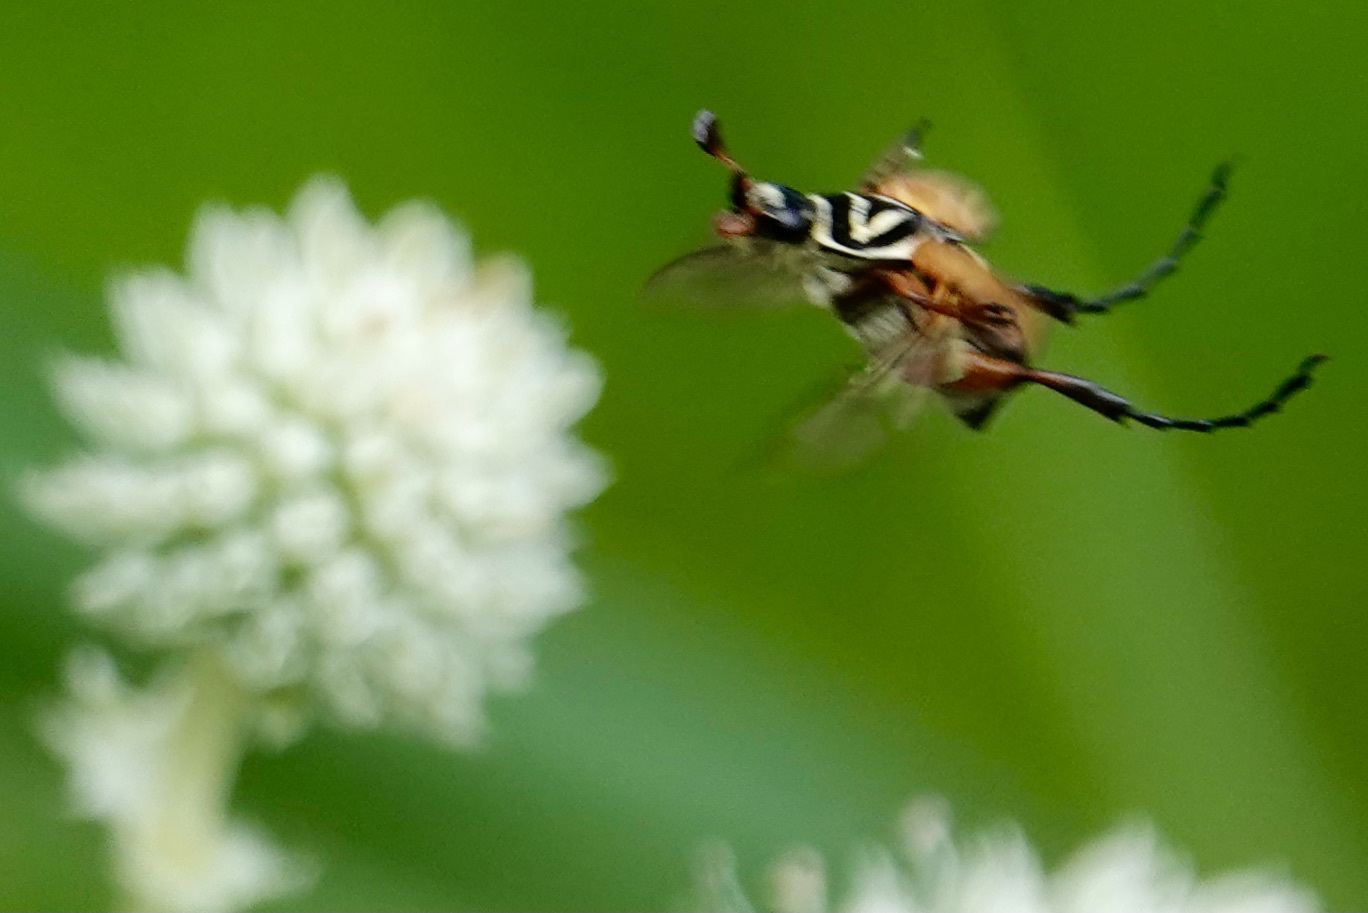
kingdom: Animalia
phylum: Arthropoda
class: Insecta
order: Coleoptera
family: Scarabaeidae
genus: Trigonopeltastes
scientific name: Trigonopeltastes delta
